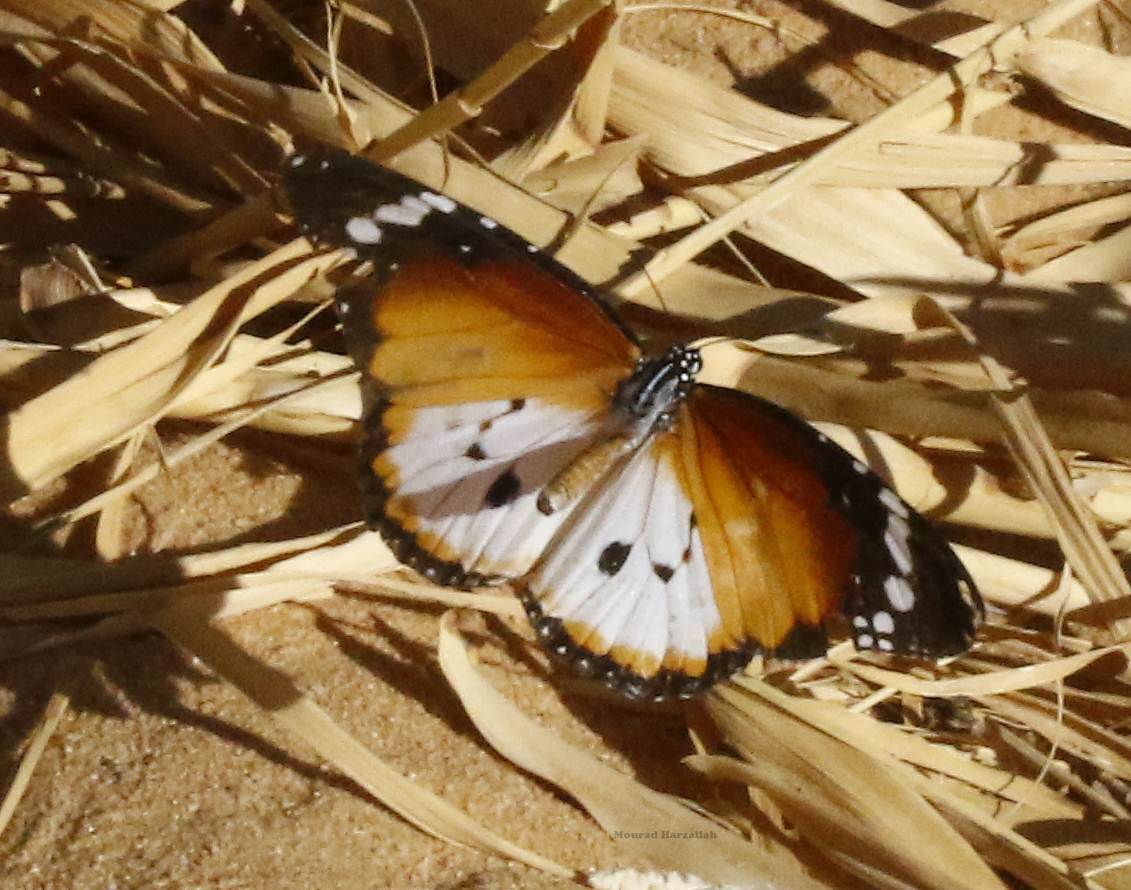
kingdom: Animalia
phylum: Arthropoda
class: Insecta
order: Lepidoptera
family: Nymphalidae
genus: Danaus
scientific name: Danaus chrysippus
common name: Plain tiger
